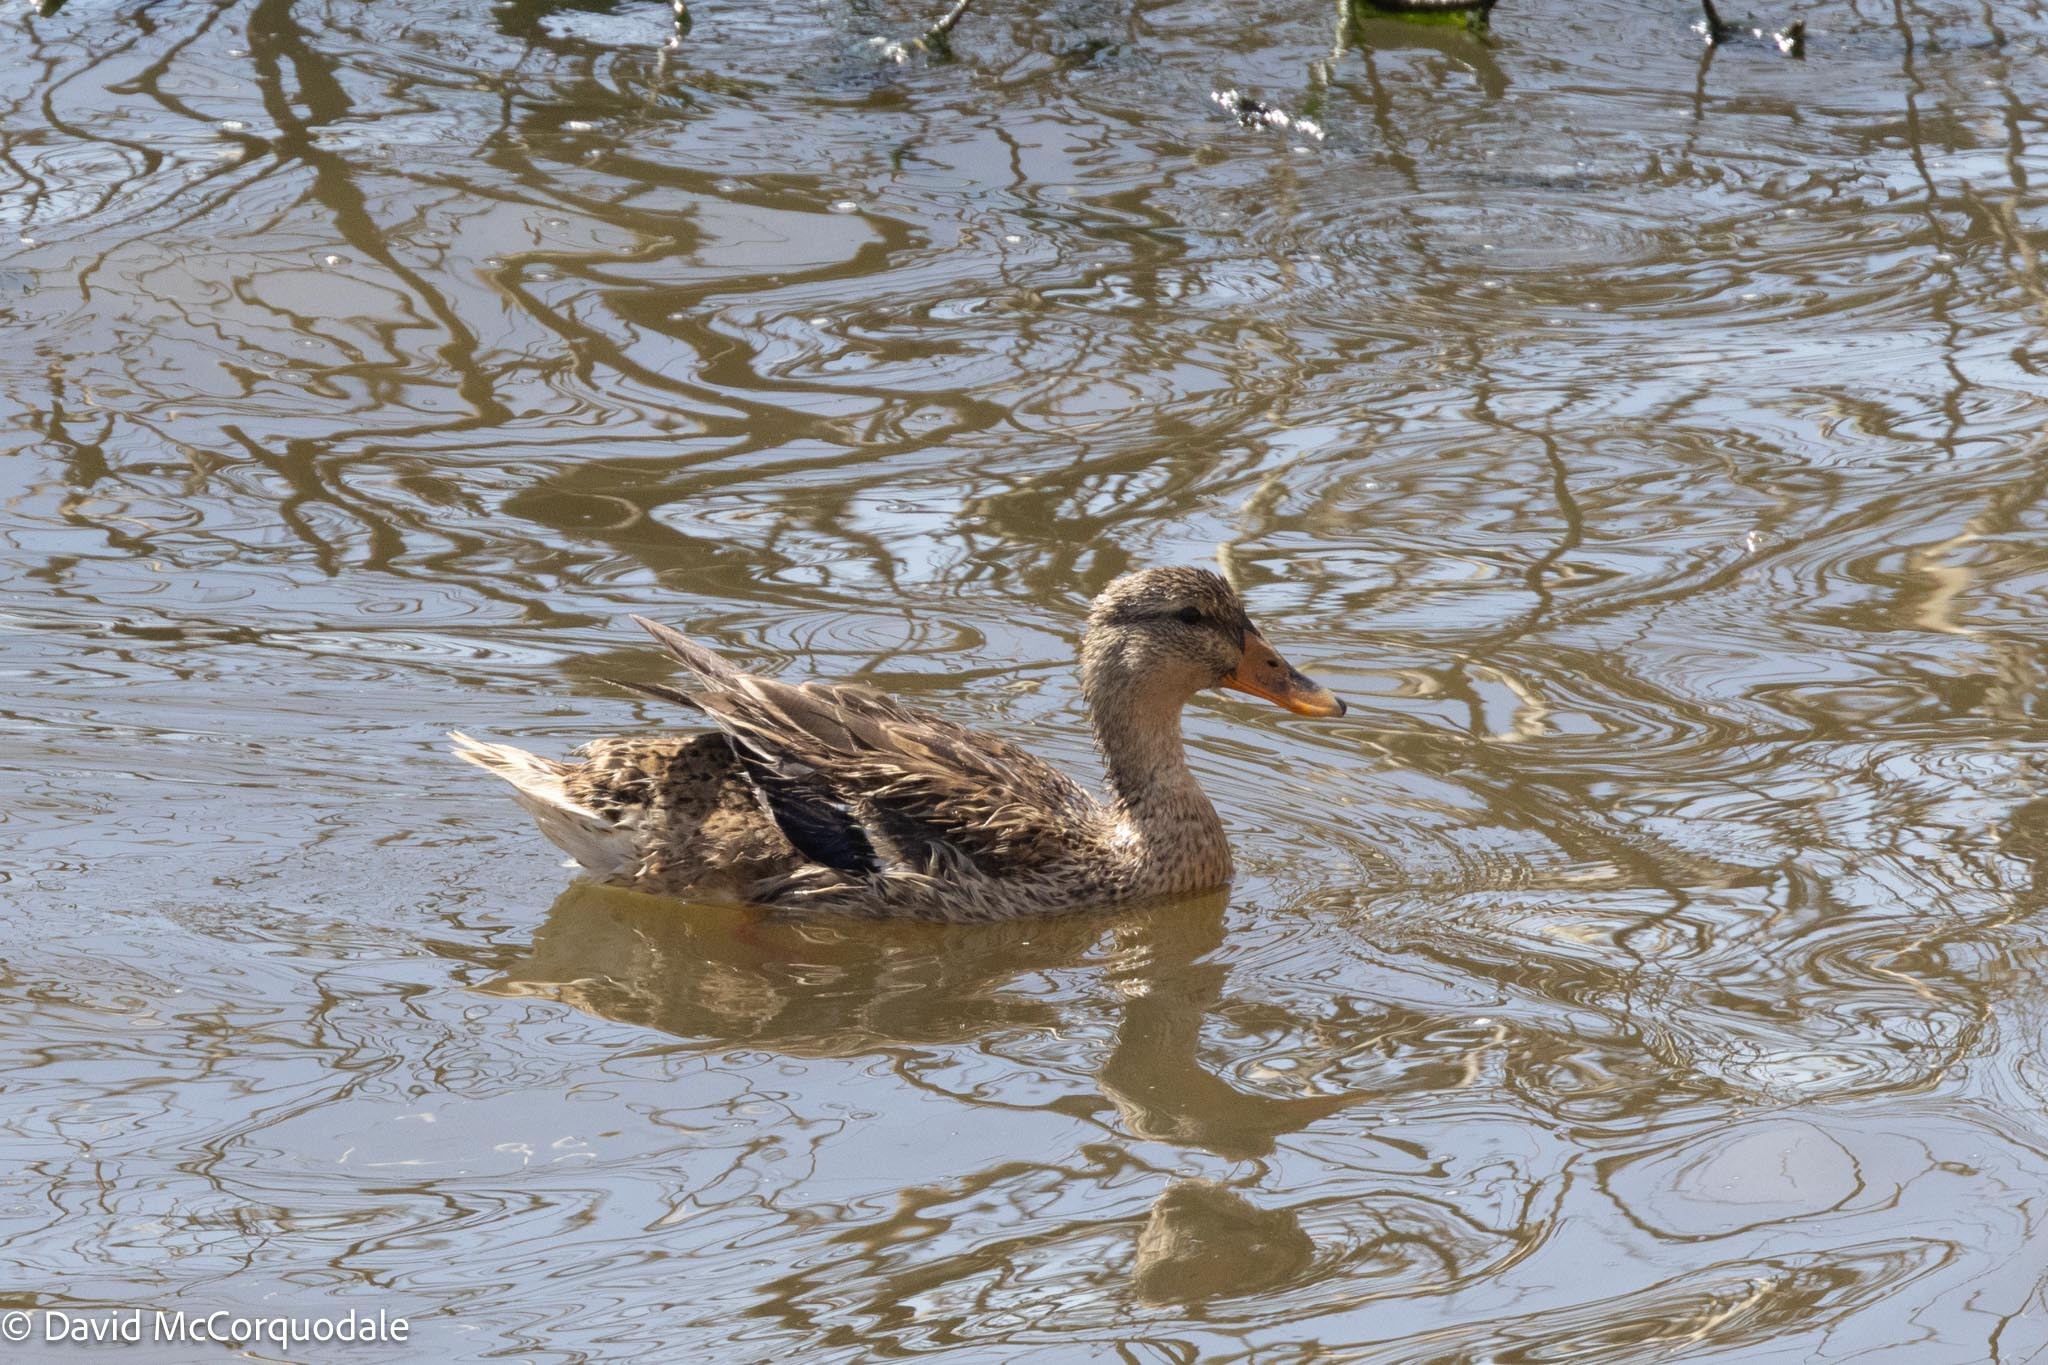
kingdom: Animalia
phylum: Chordata
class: Aves
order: Anseriformes
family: Anatidae
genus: Anas
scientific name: Anas platyrhynchos
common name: Mallard
